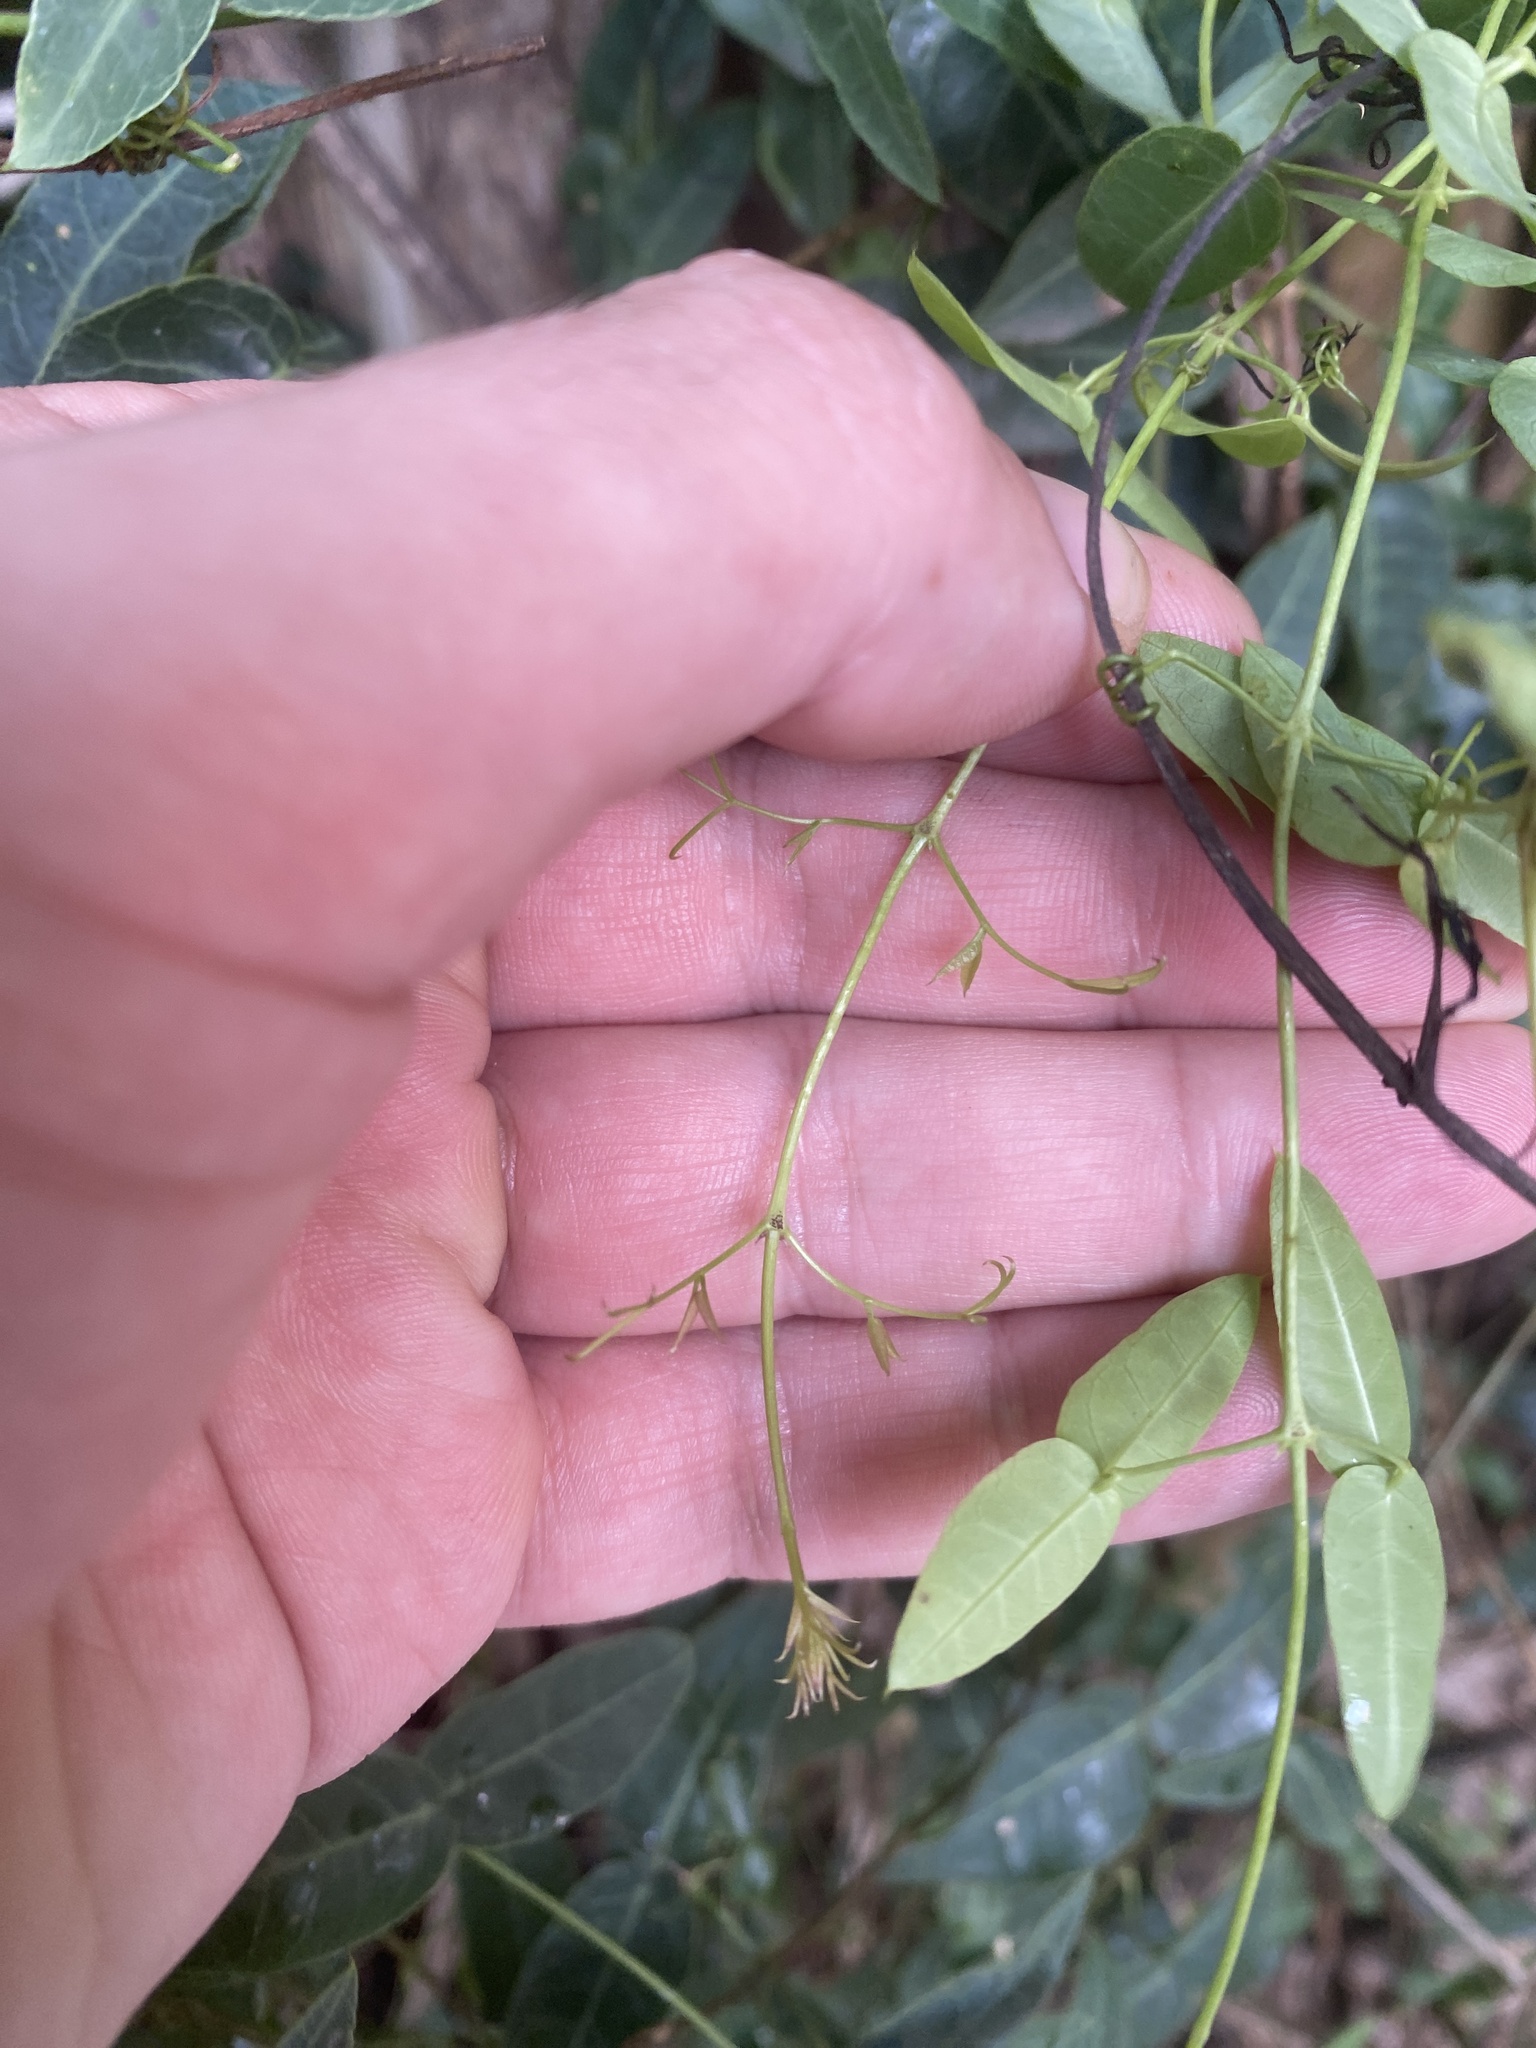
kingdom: Plantae
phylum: Tracheophyta
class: Magnoliopsida
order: Lamiales
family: Bignoniaceae
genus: Dolichandra
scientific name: Dolichandra cynanchoides
